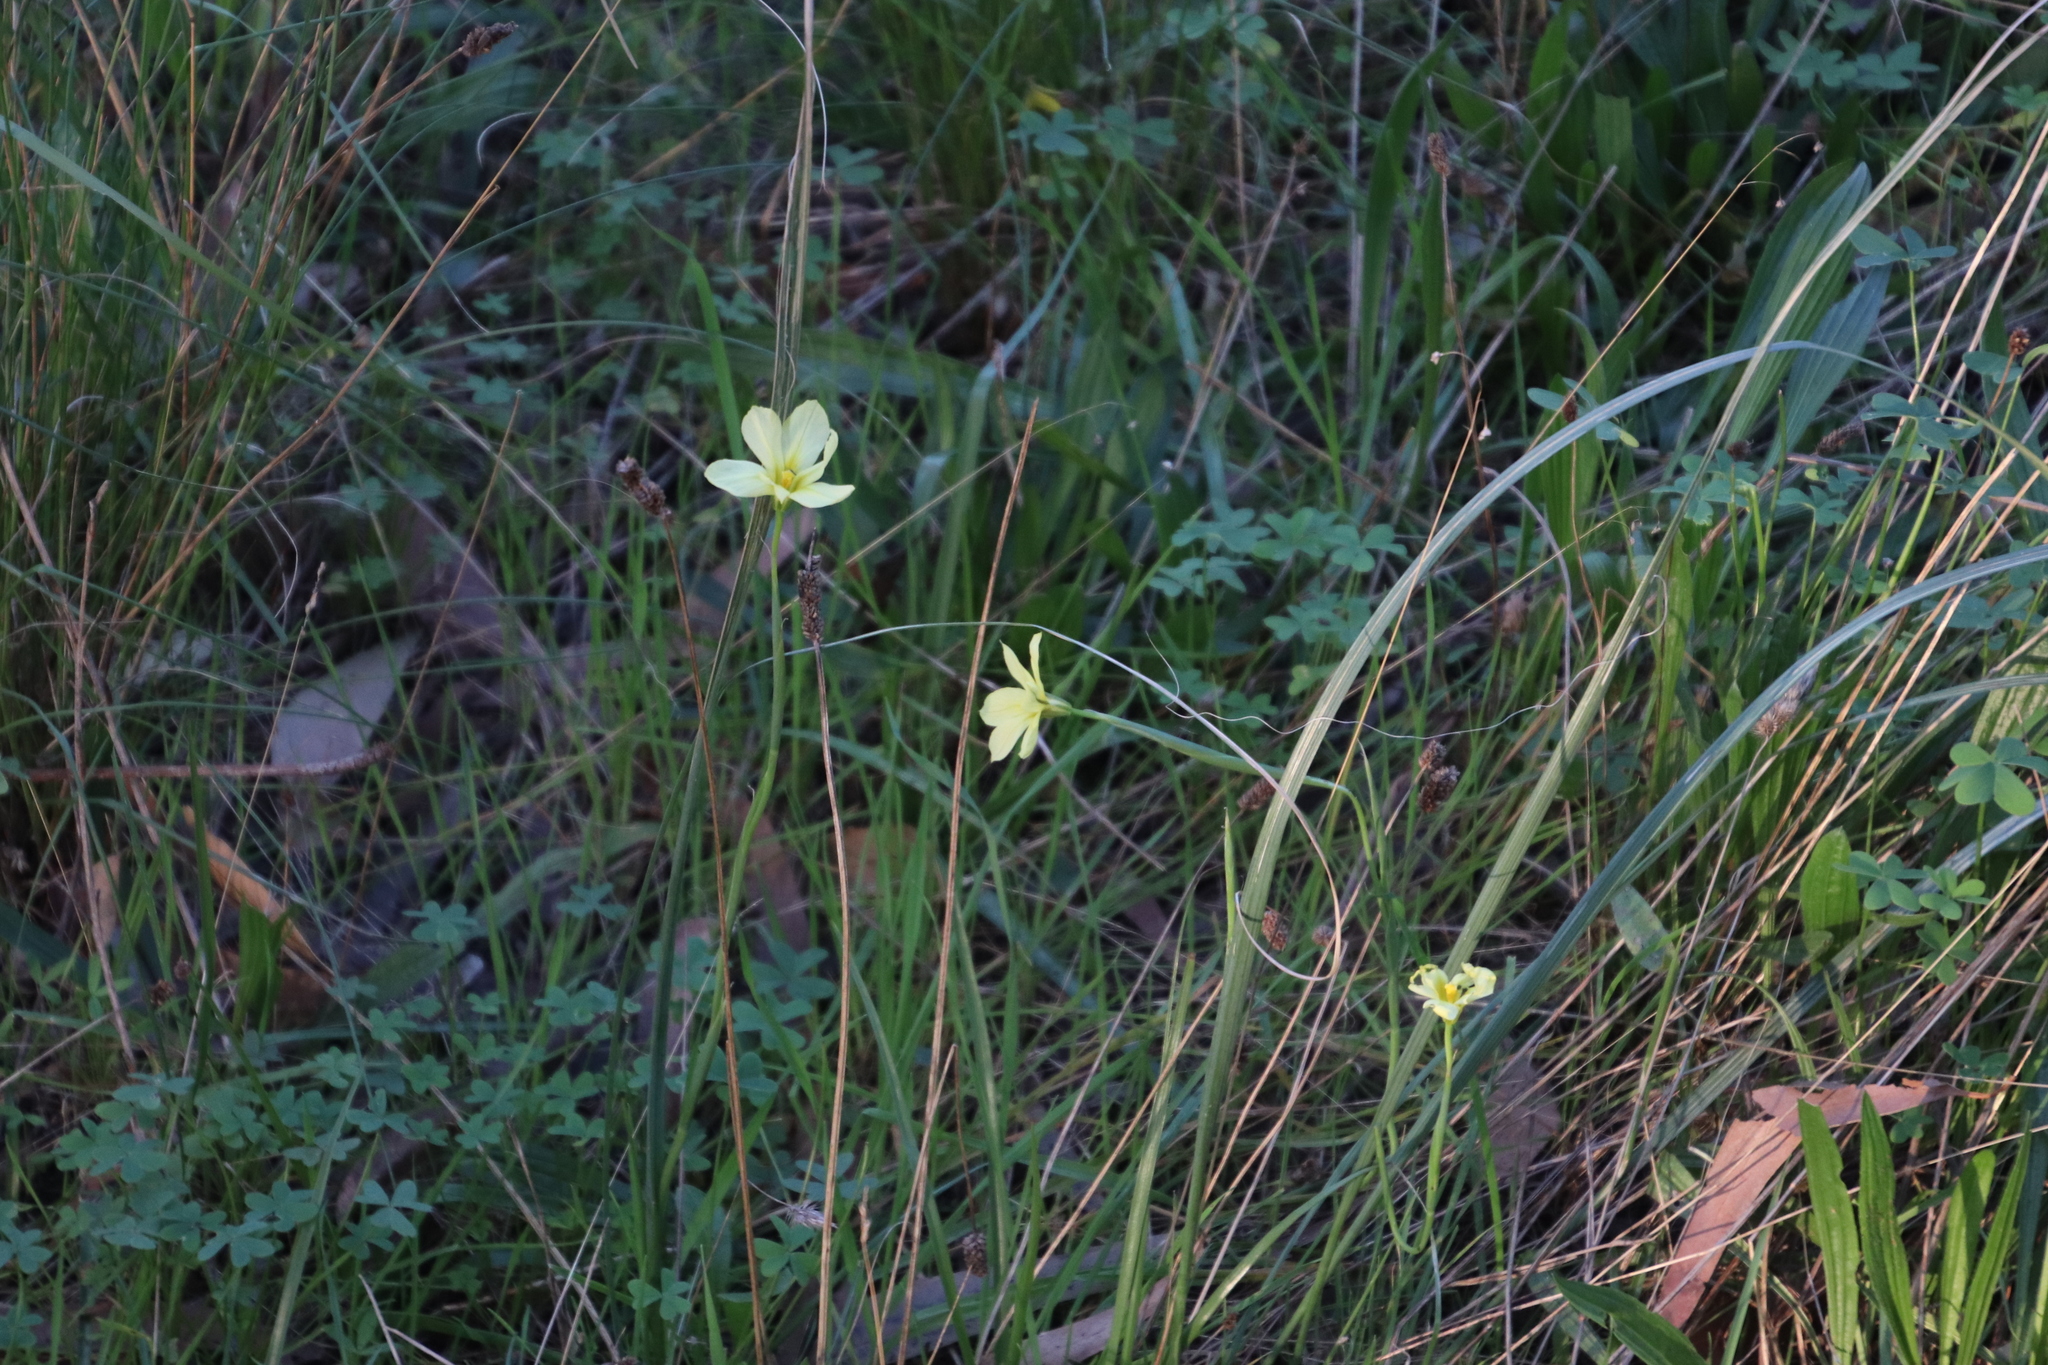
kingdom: Plantae
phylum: Tracheophyta
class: Liliopsida
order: Asparagales
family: Iridaceae
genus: Moraea
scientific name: Moraea collina
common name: Cape-tulip
